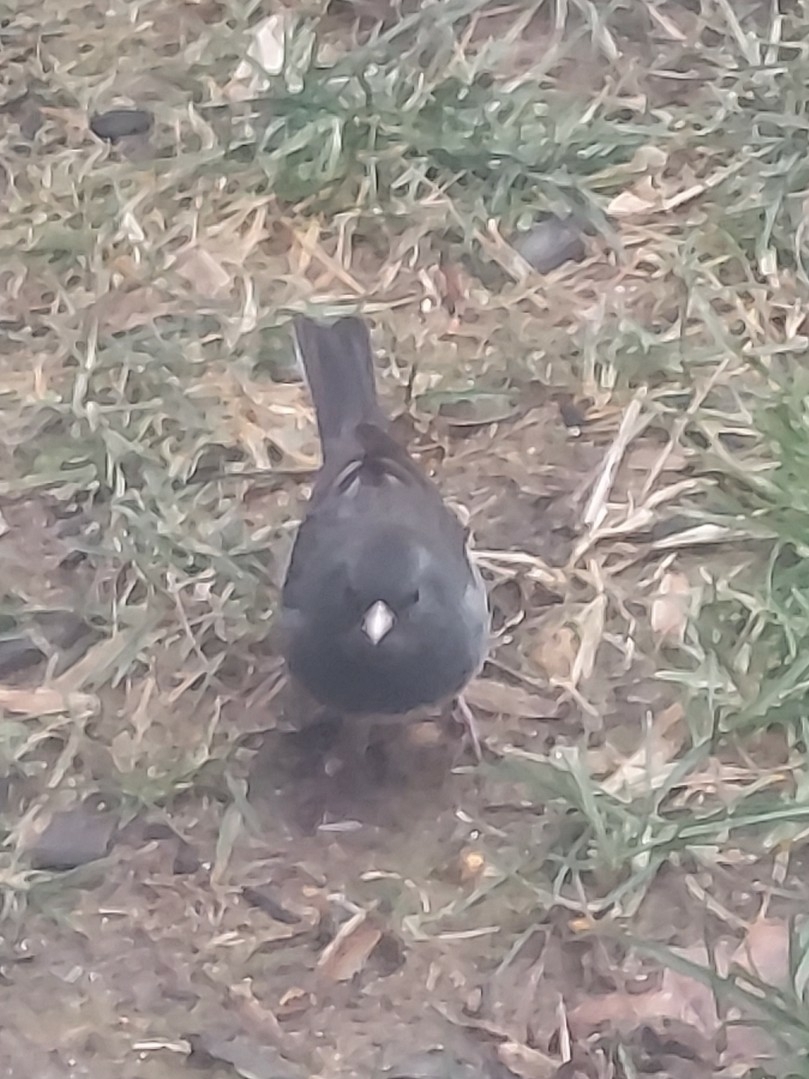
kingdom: Animalia
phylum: Chordata
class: Aves
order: Passeriformes
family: Passerellidae
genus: Junco
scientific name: Junco hyemalis
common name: Dark-eyed junco
